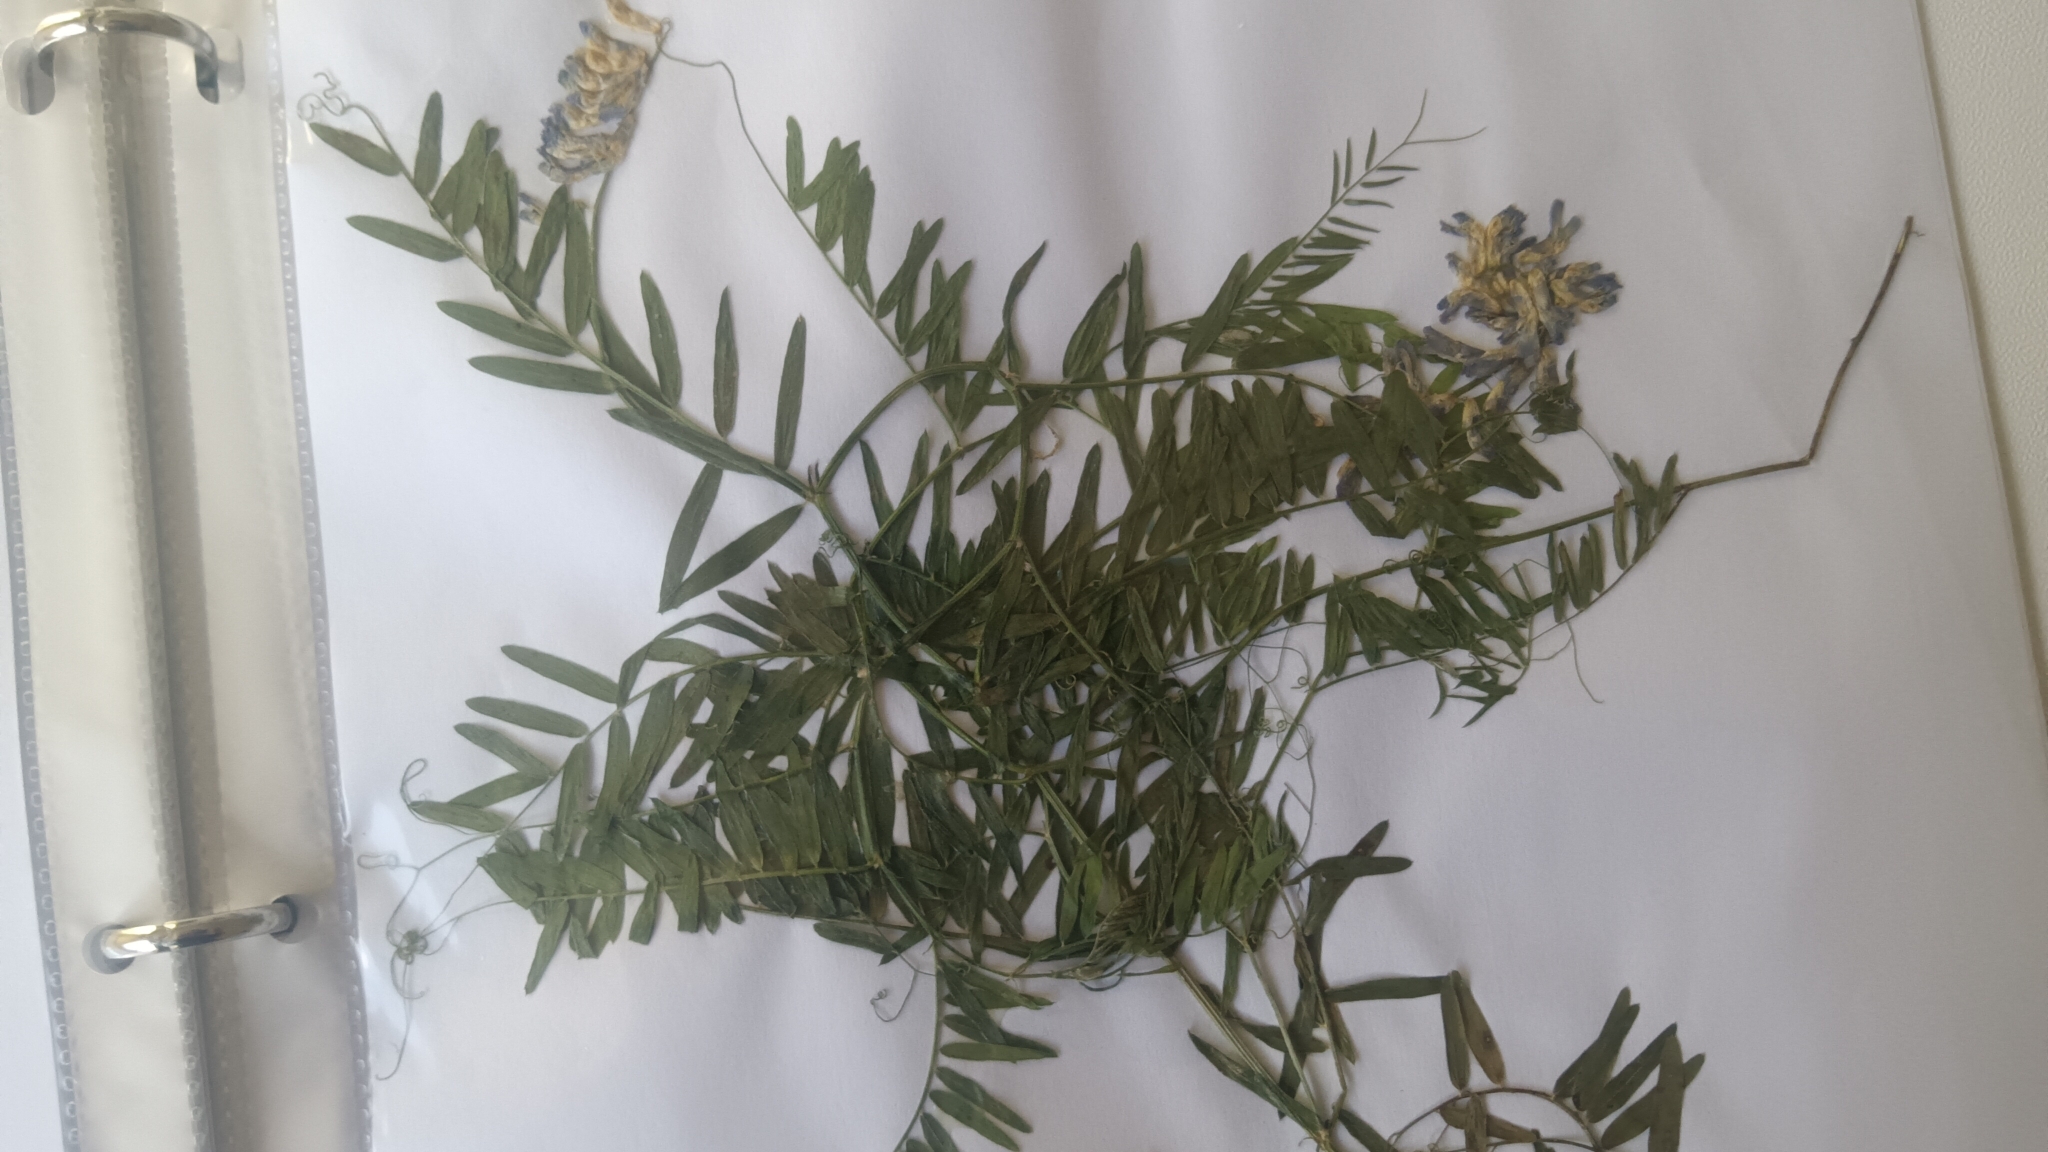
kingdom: Plantae
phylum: Tracheophyta
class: Magnoliopsida
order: Fabales
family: Fabaceae
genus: Vicia
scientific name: Vicia cracca
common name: Bird vetch
